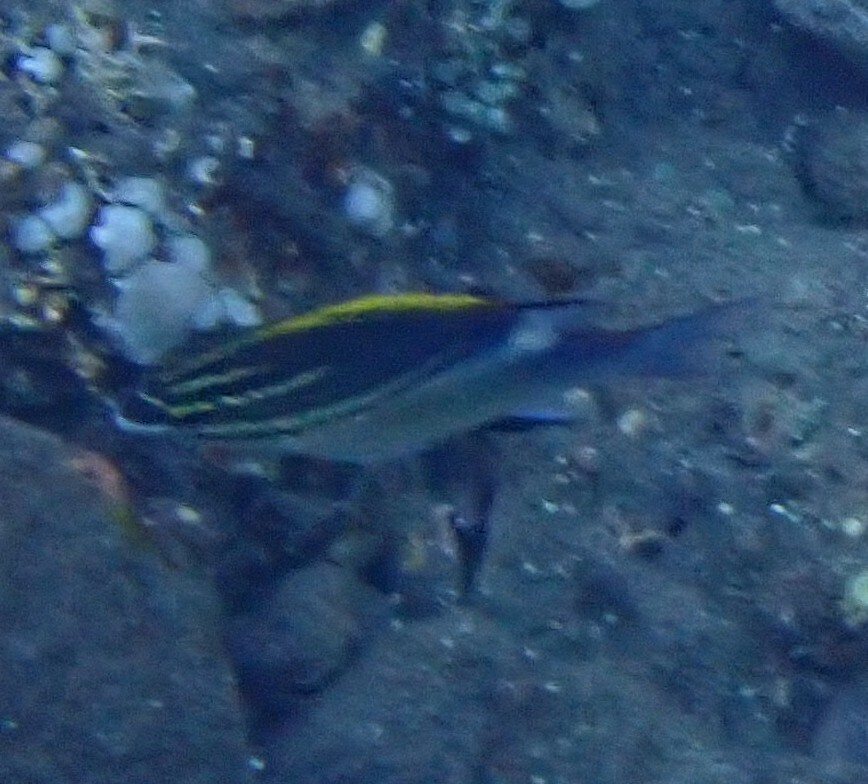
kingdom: Animalia
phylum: Chordata
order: Perciformes
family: Nemipteridae
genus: Scolopsis
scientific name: Scolopsis bilineata
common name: Two-lined monocle bream
